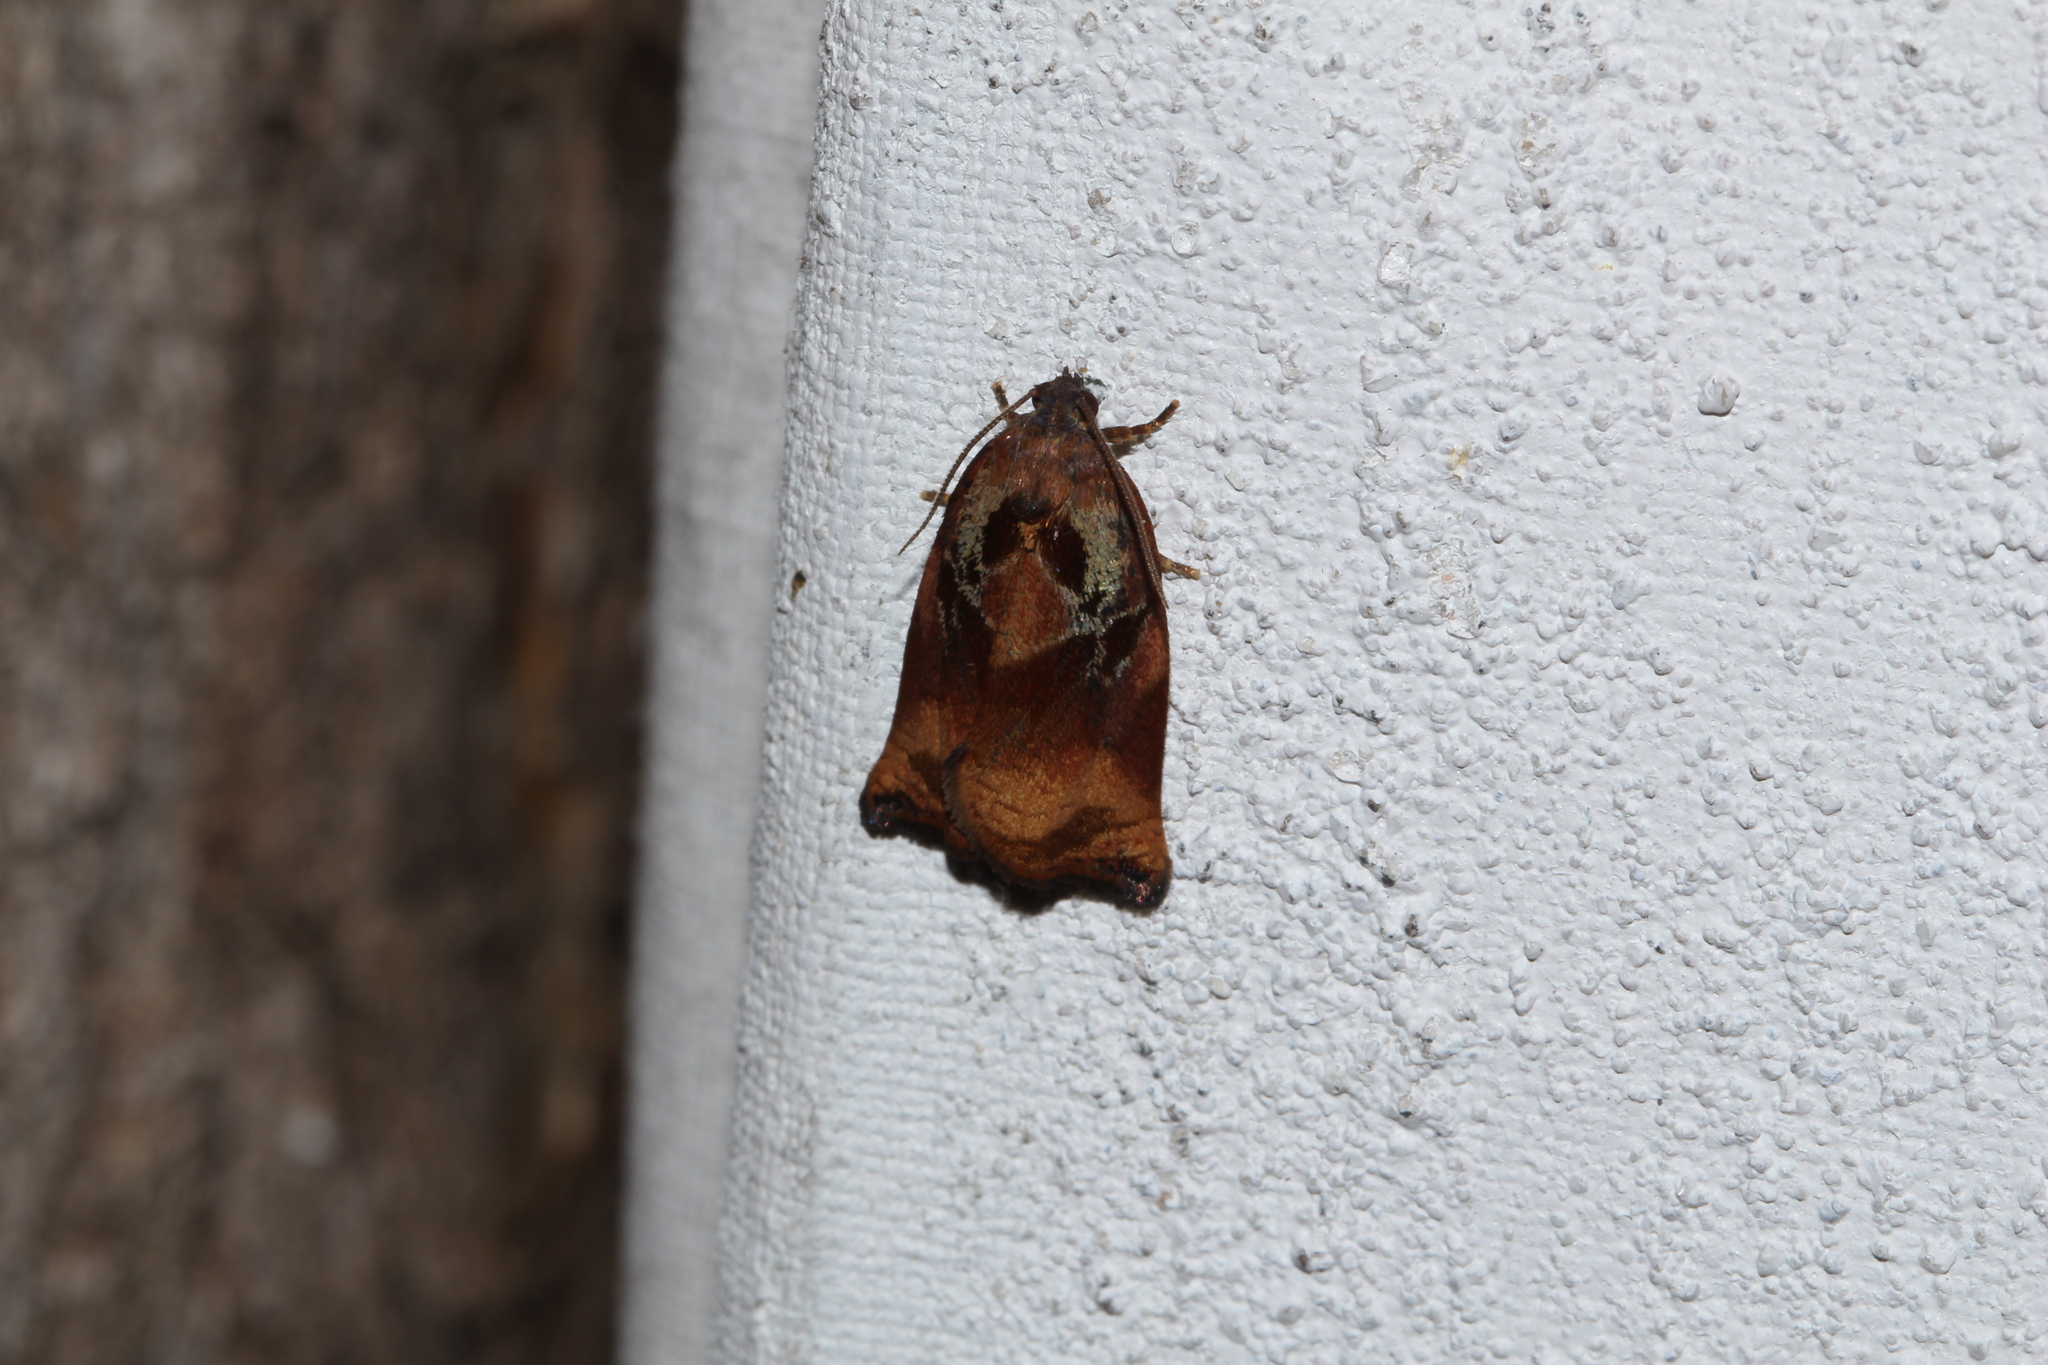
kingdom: Animalia
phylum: Arthropoda
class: Insecta
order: Lepidoptera
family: Tortricidae
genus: Archips
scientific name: Archips podana
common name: Large fruit-tree tortrix
